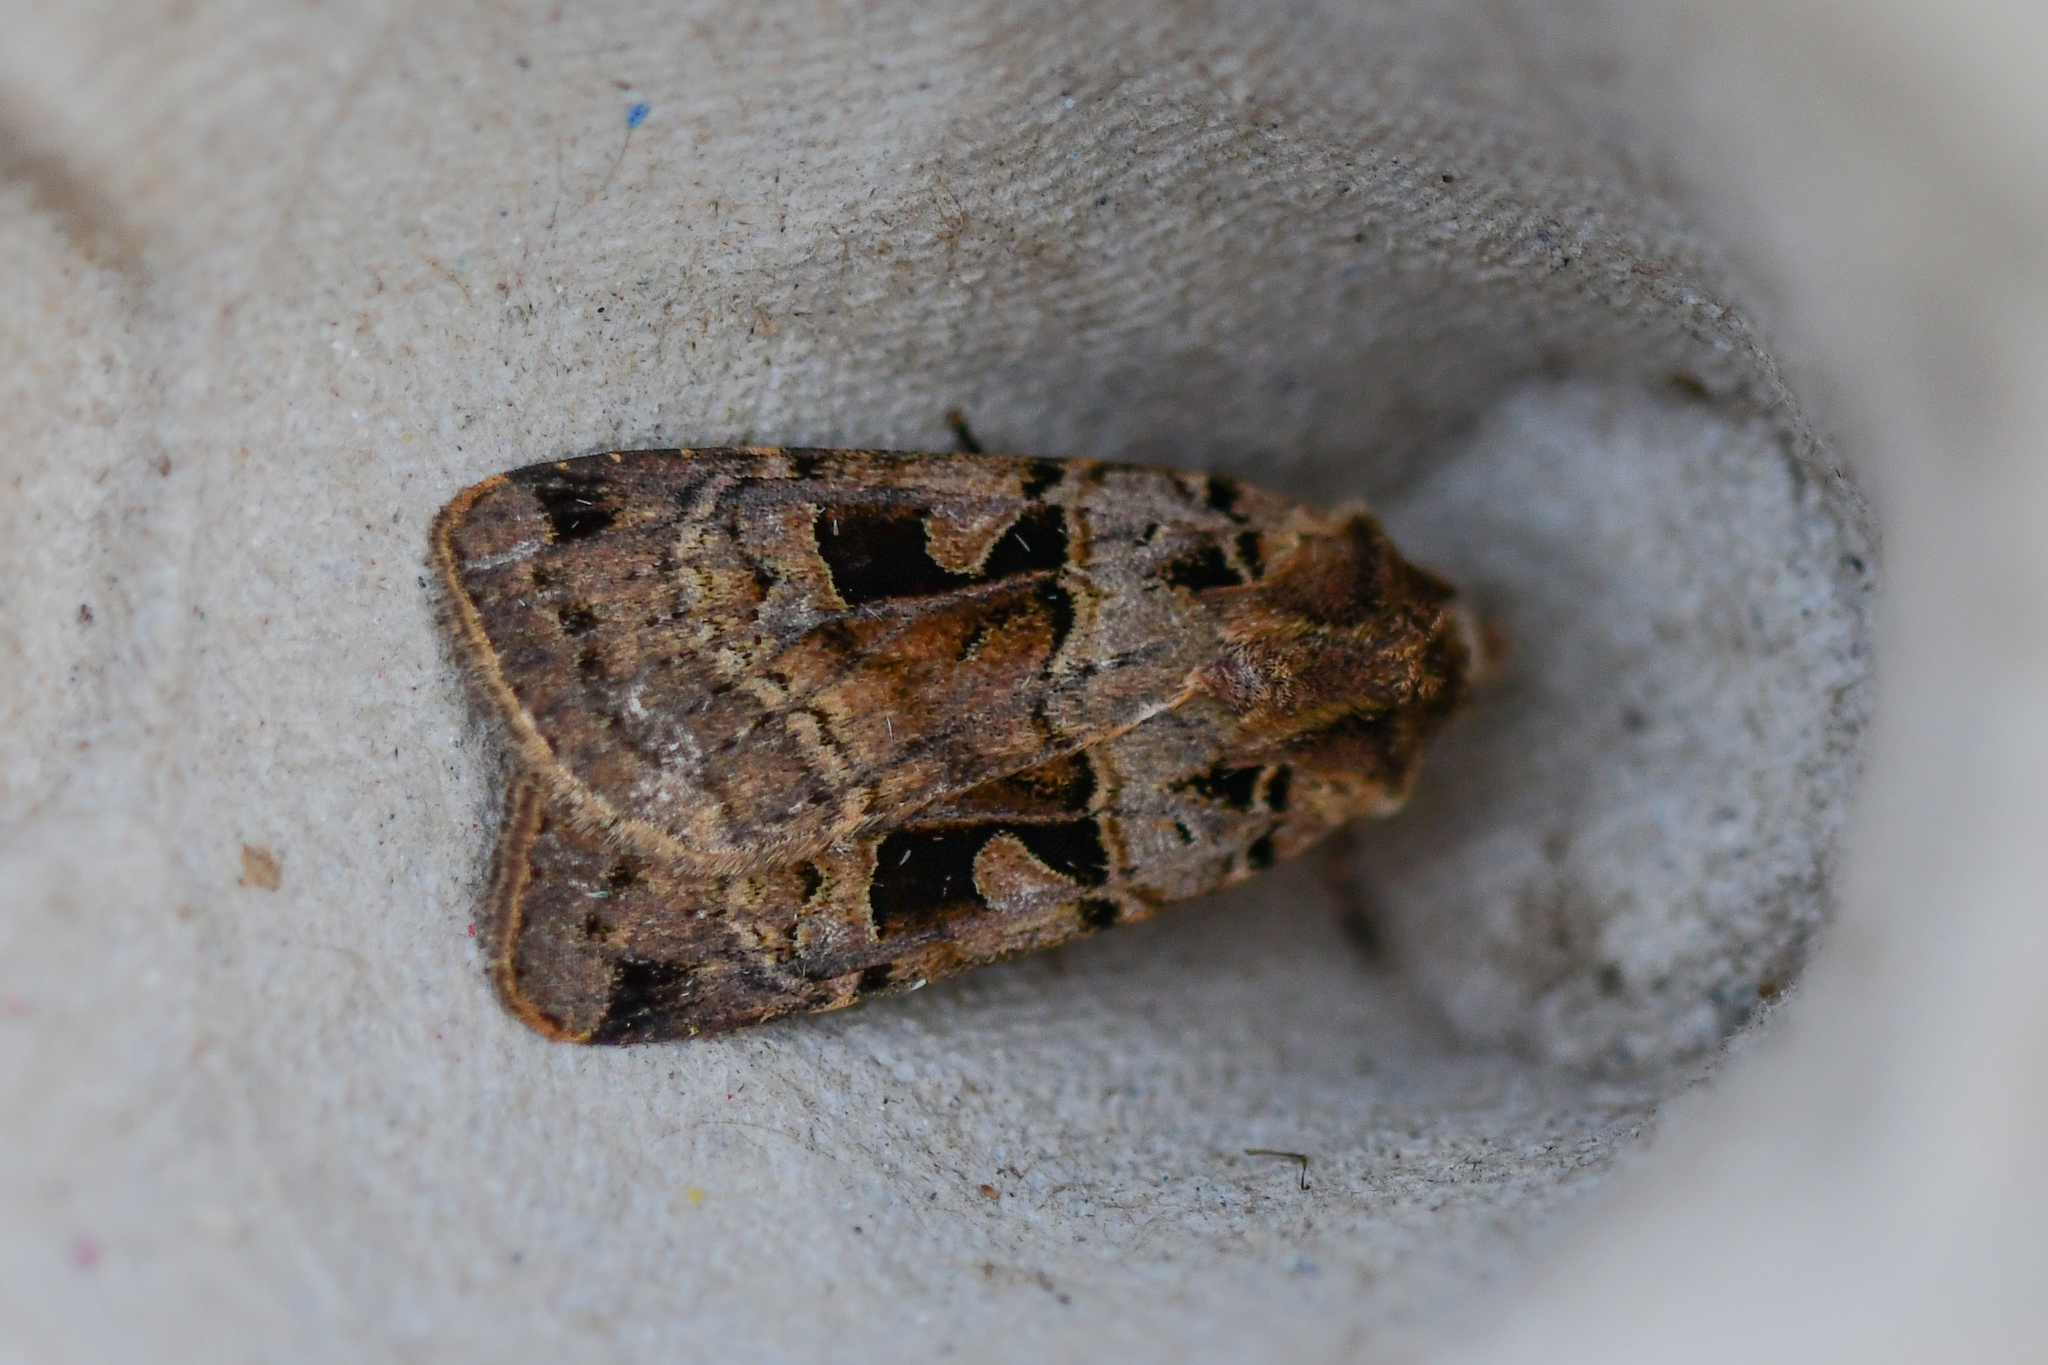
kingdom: Animalia
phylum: Arthropoda
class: Insecta
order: Lepidoptera
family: Noctuidae
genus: Xestia
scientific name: Xestia triangulum
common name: Double square-spot
